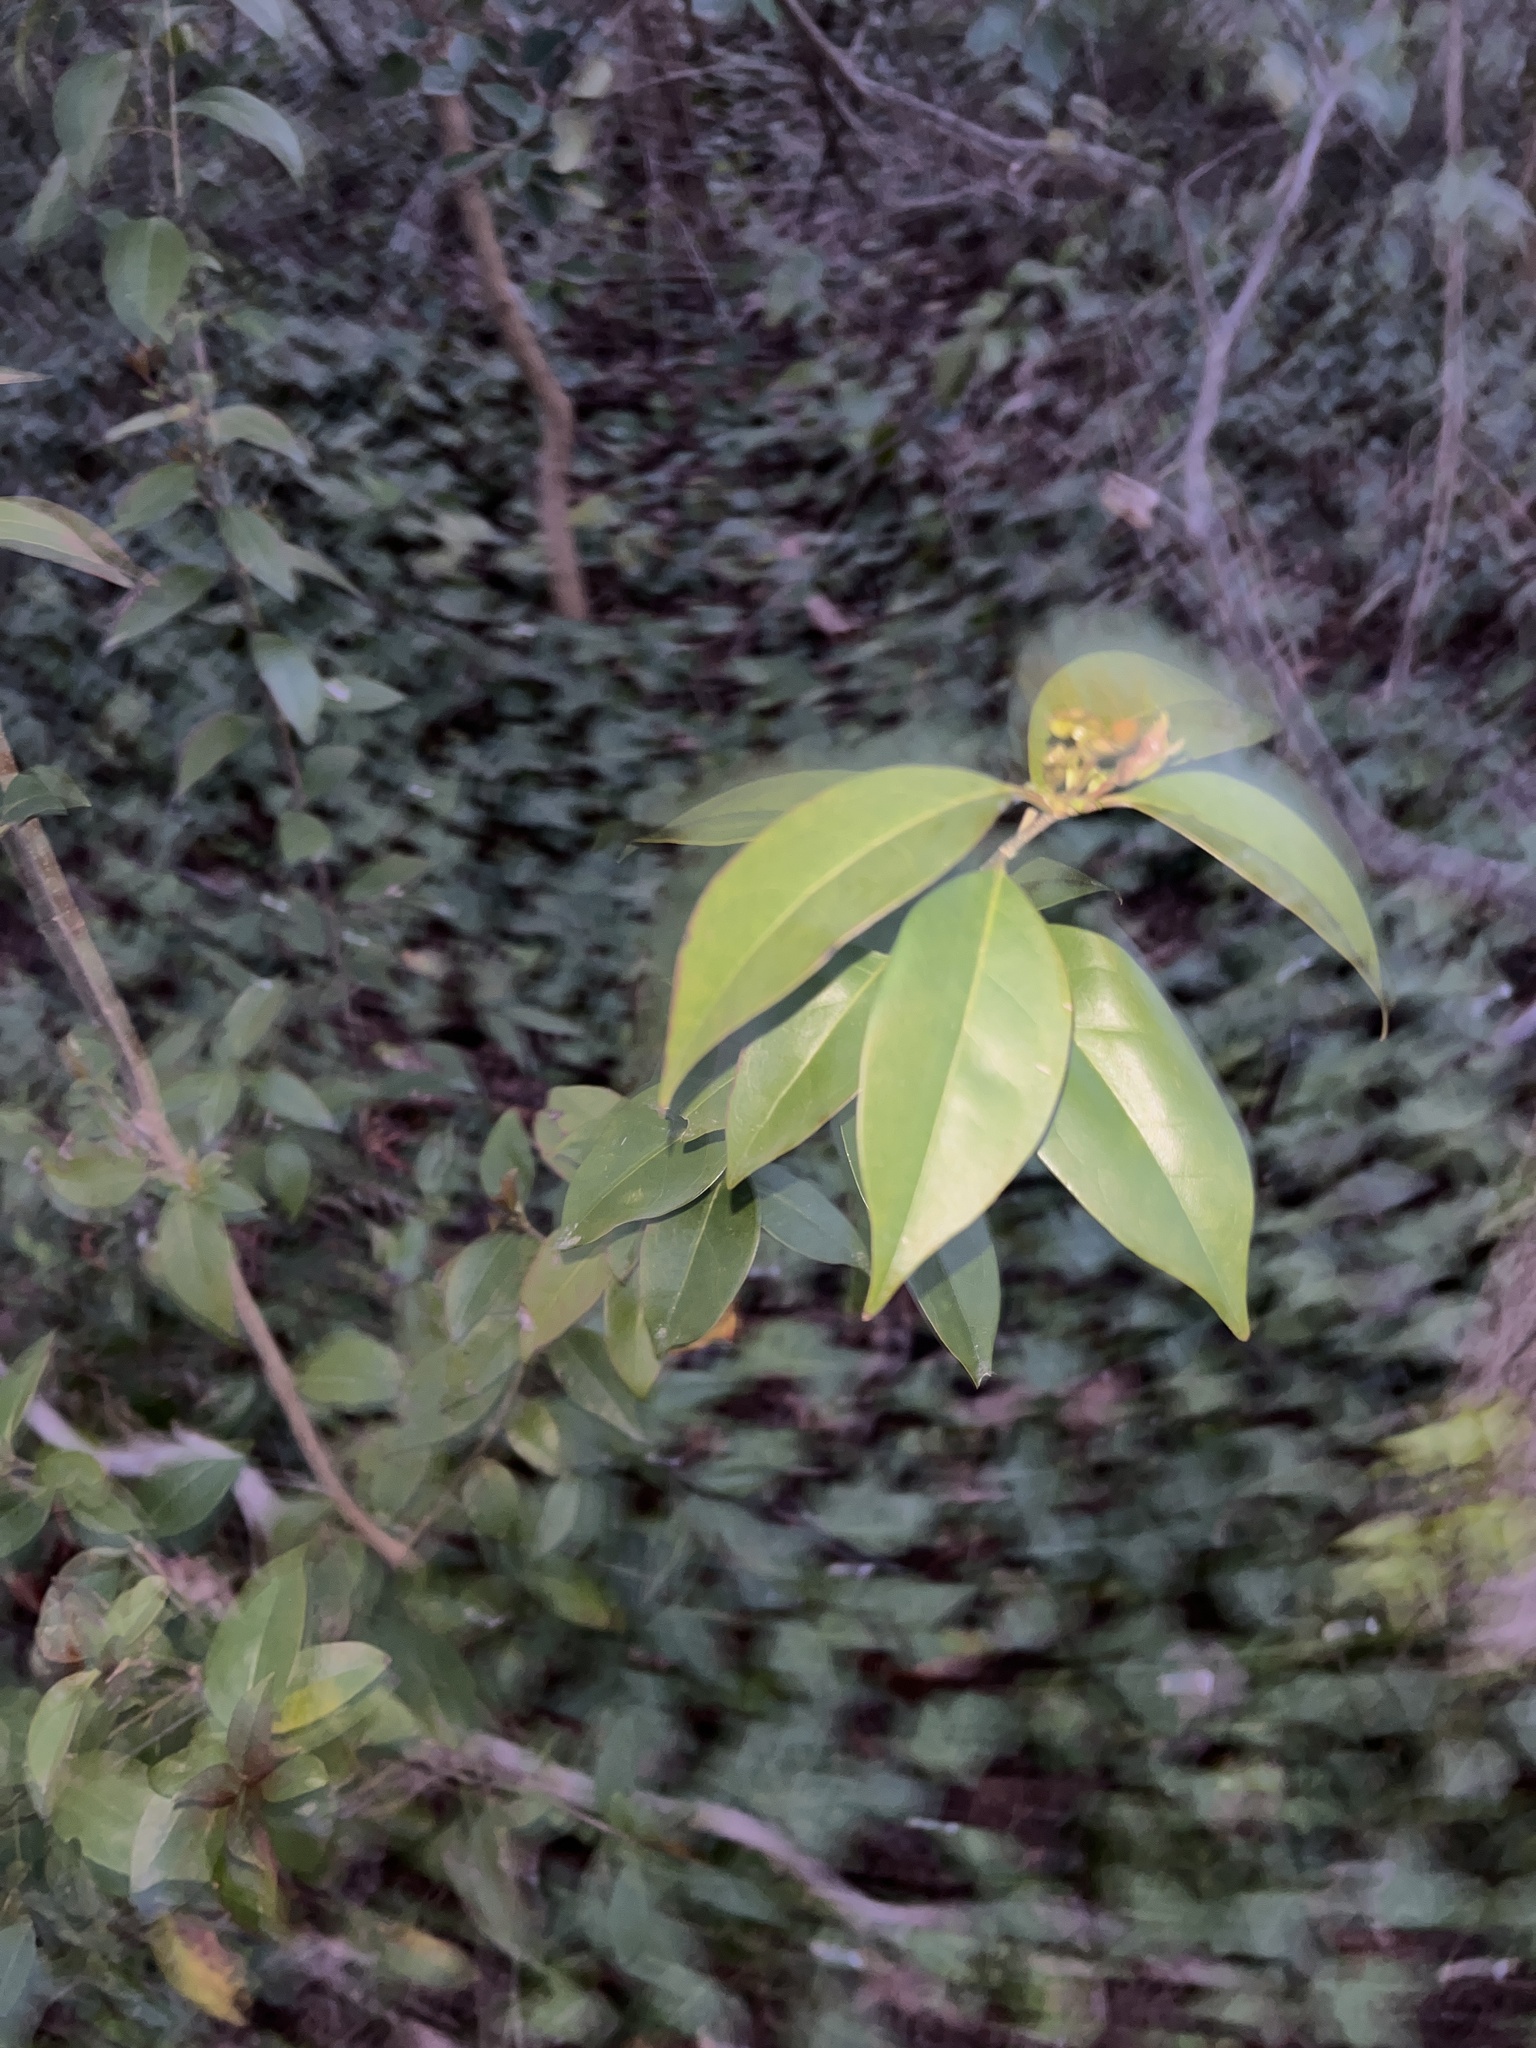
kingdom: Plantae
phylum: Tracheophyta
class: Magnoliopsida
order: Lamiales
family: Oleaceae
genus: Ligustrum
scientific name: Ligustrum lucidum
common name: Glossy privet
